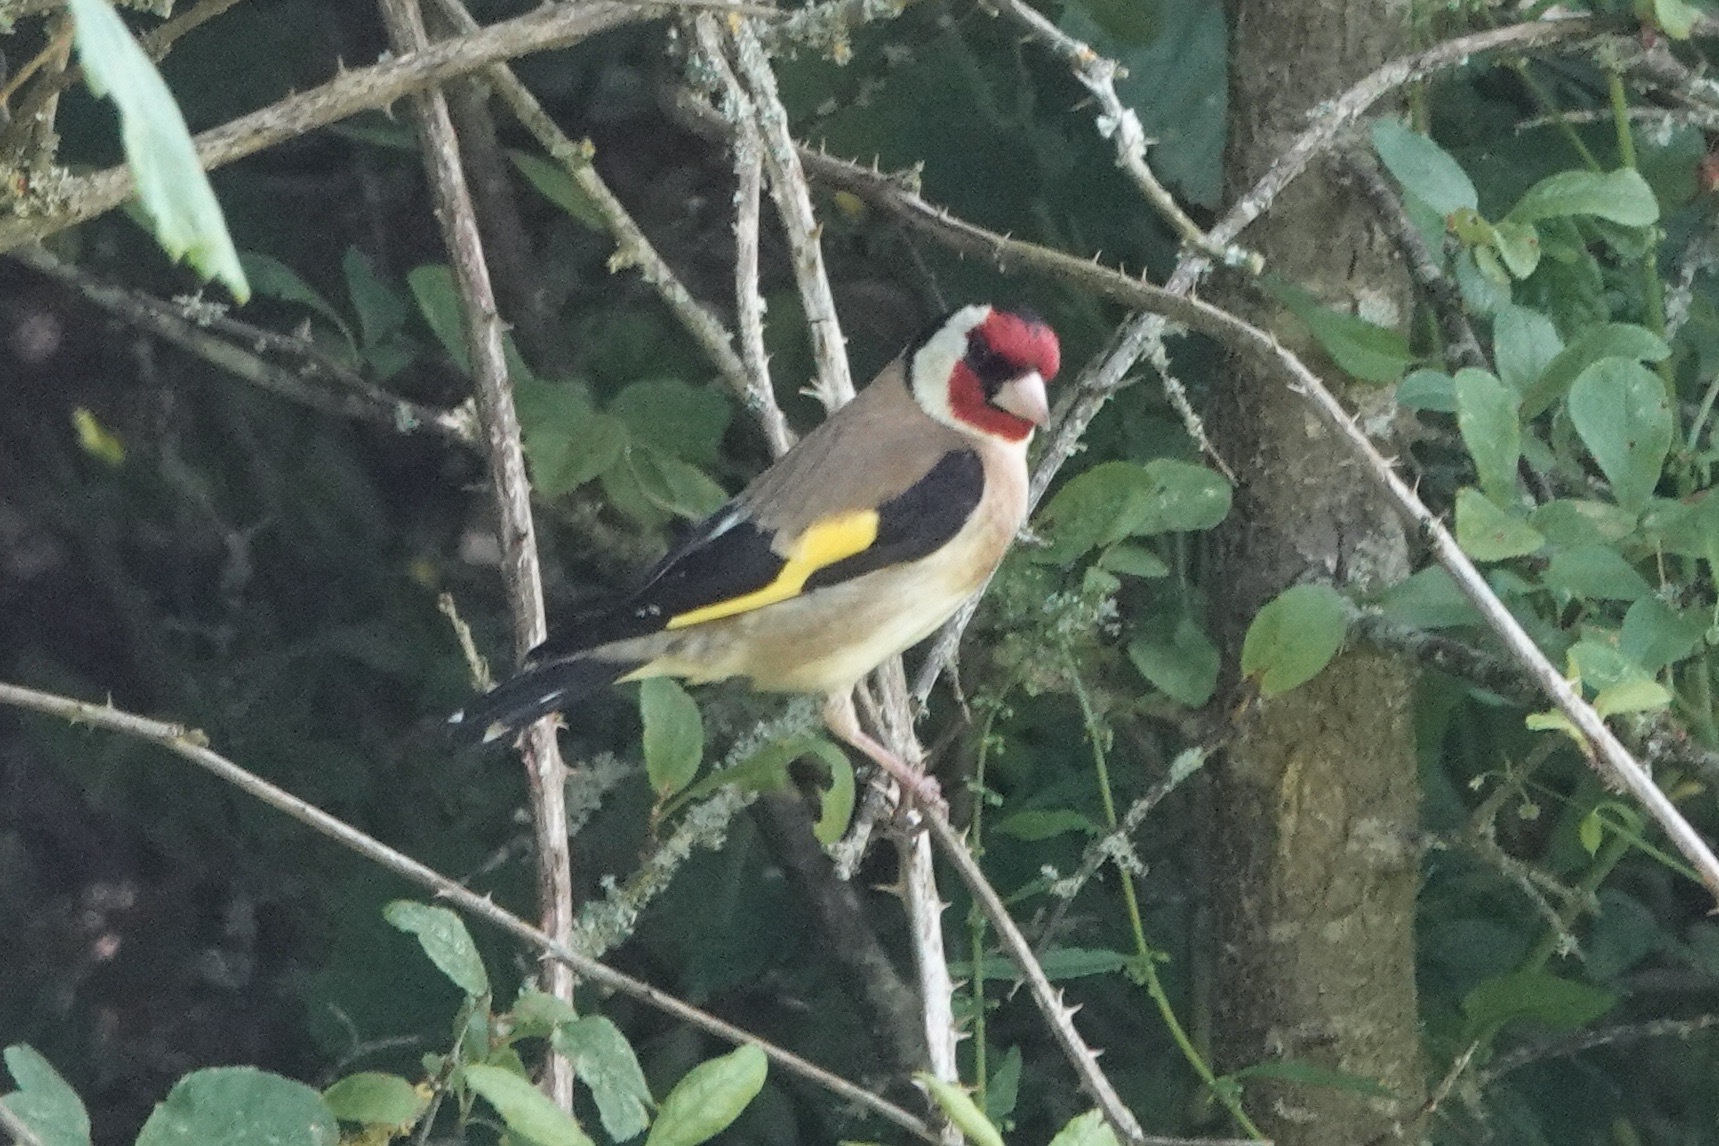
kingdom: Animalia
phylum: Chordata
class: Aves
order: Passeriformes
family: Fringillidae
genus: Carduelis
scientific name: Carduelis carduelis
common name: European goldfinch
